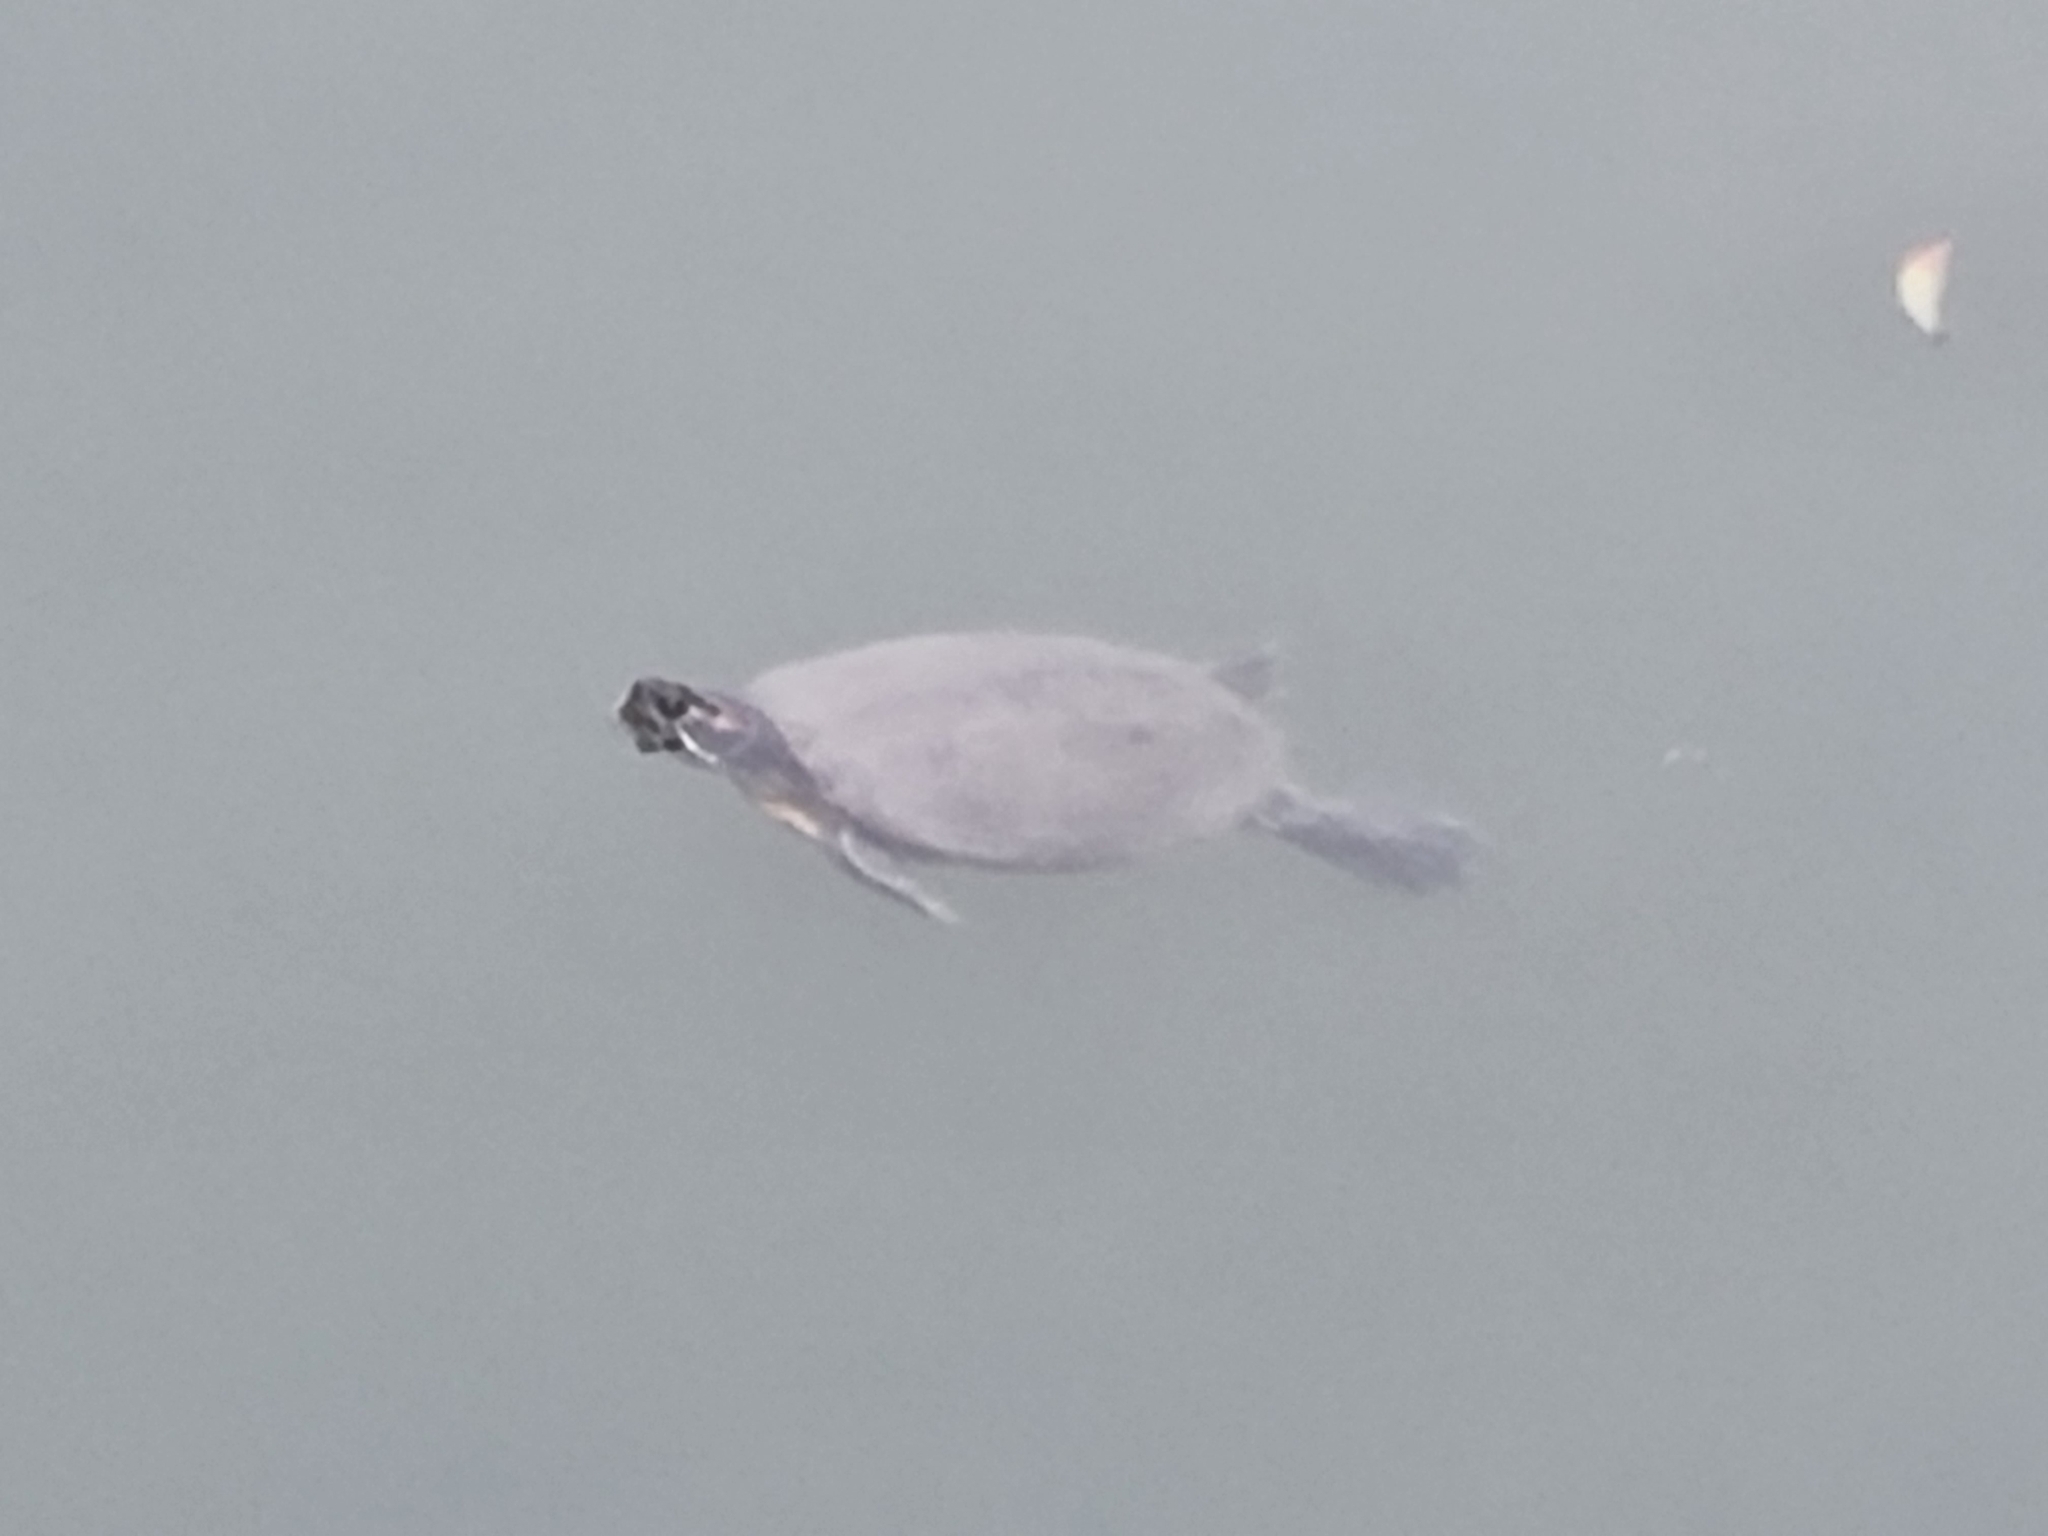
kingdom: Animalia
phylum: Chordata
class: Testudines
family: Emydidae
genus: Trachemys
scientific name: Trachemys scripta
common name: Slider
